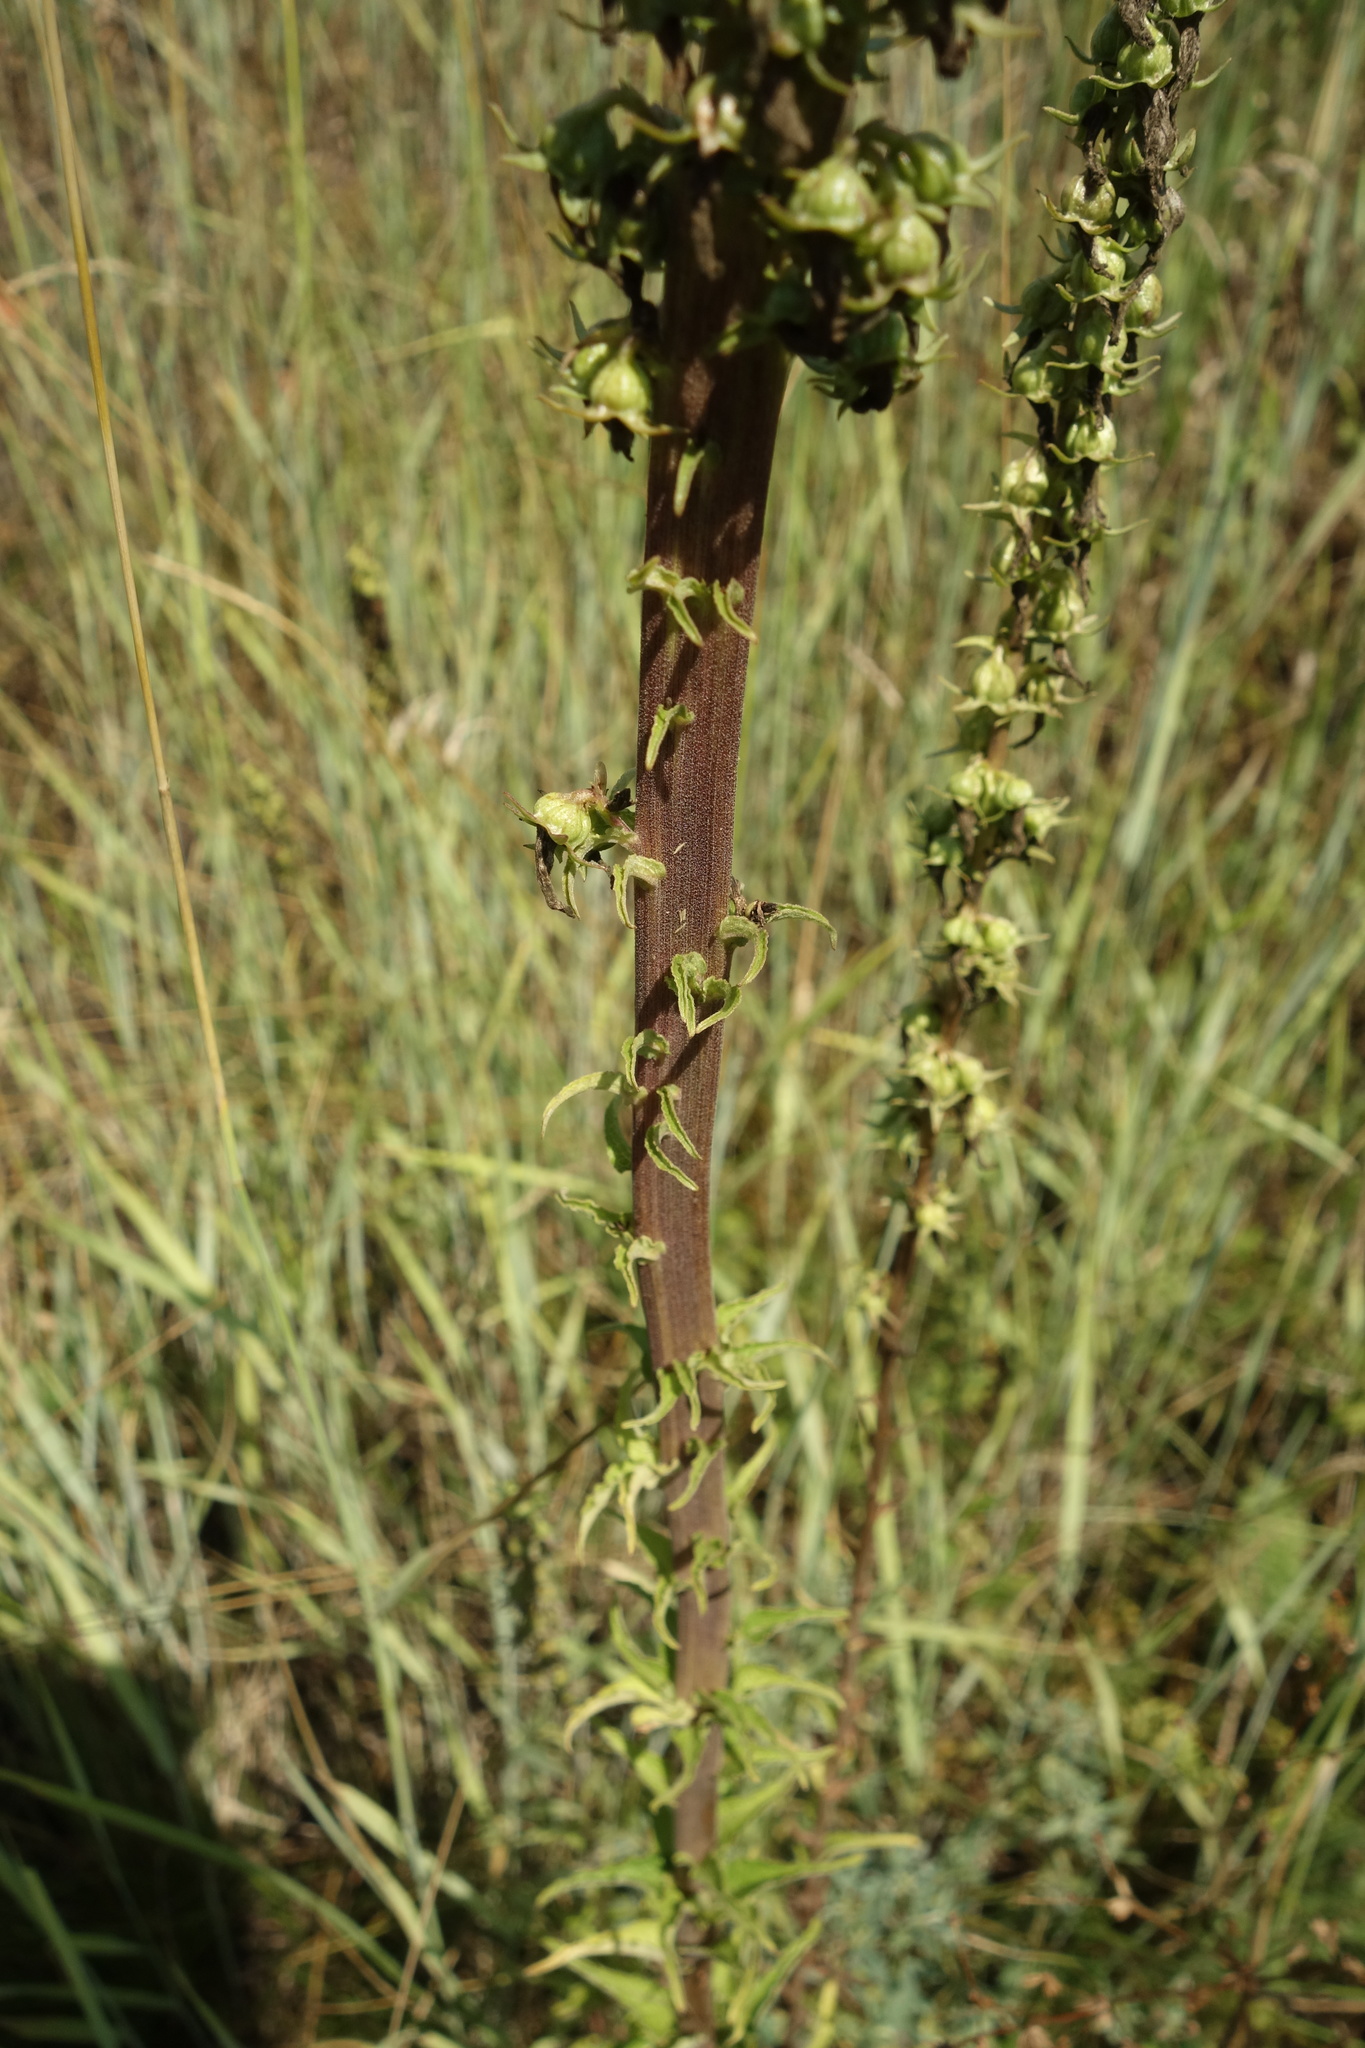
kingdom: Plantae
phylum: Tracheophyta
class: Magnoliopsida
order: Asterales
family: Campanulaceae
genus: Campanula
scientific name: Campanula bononiensis
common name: Pale bellflower
